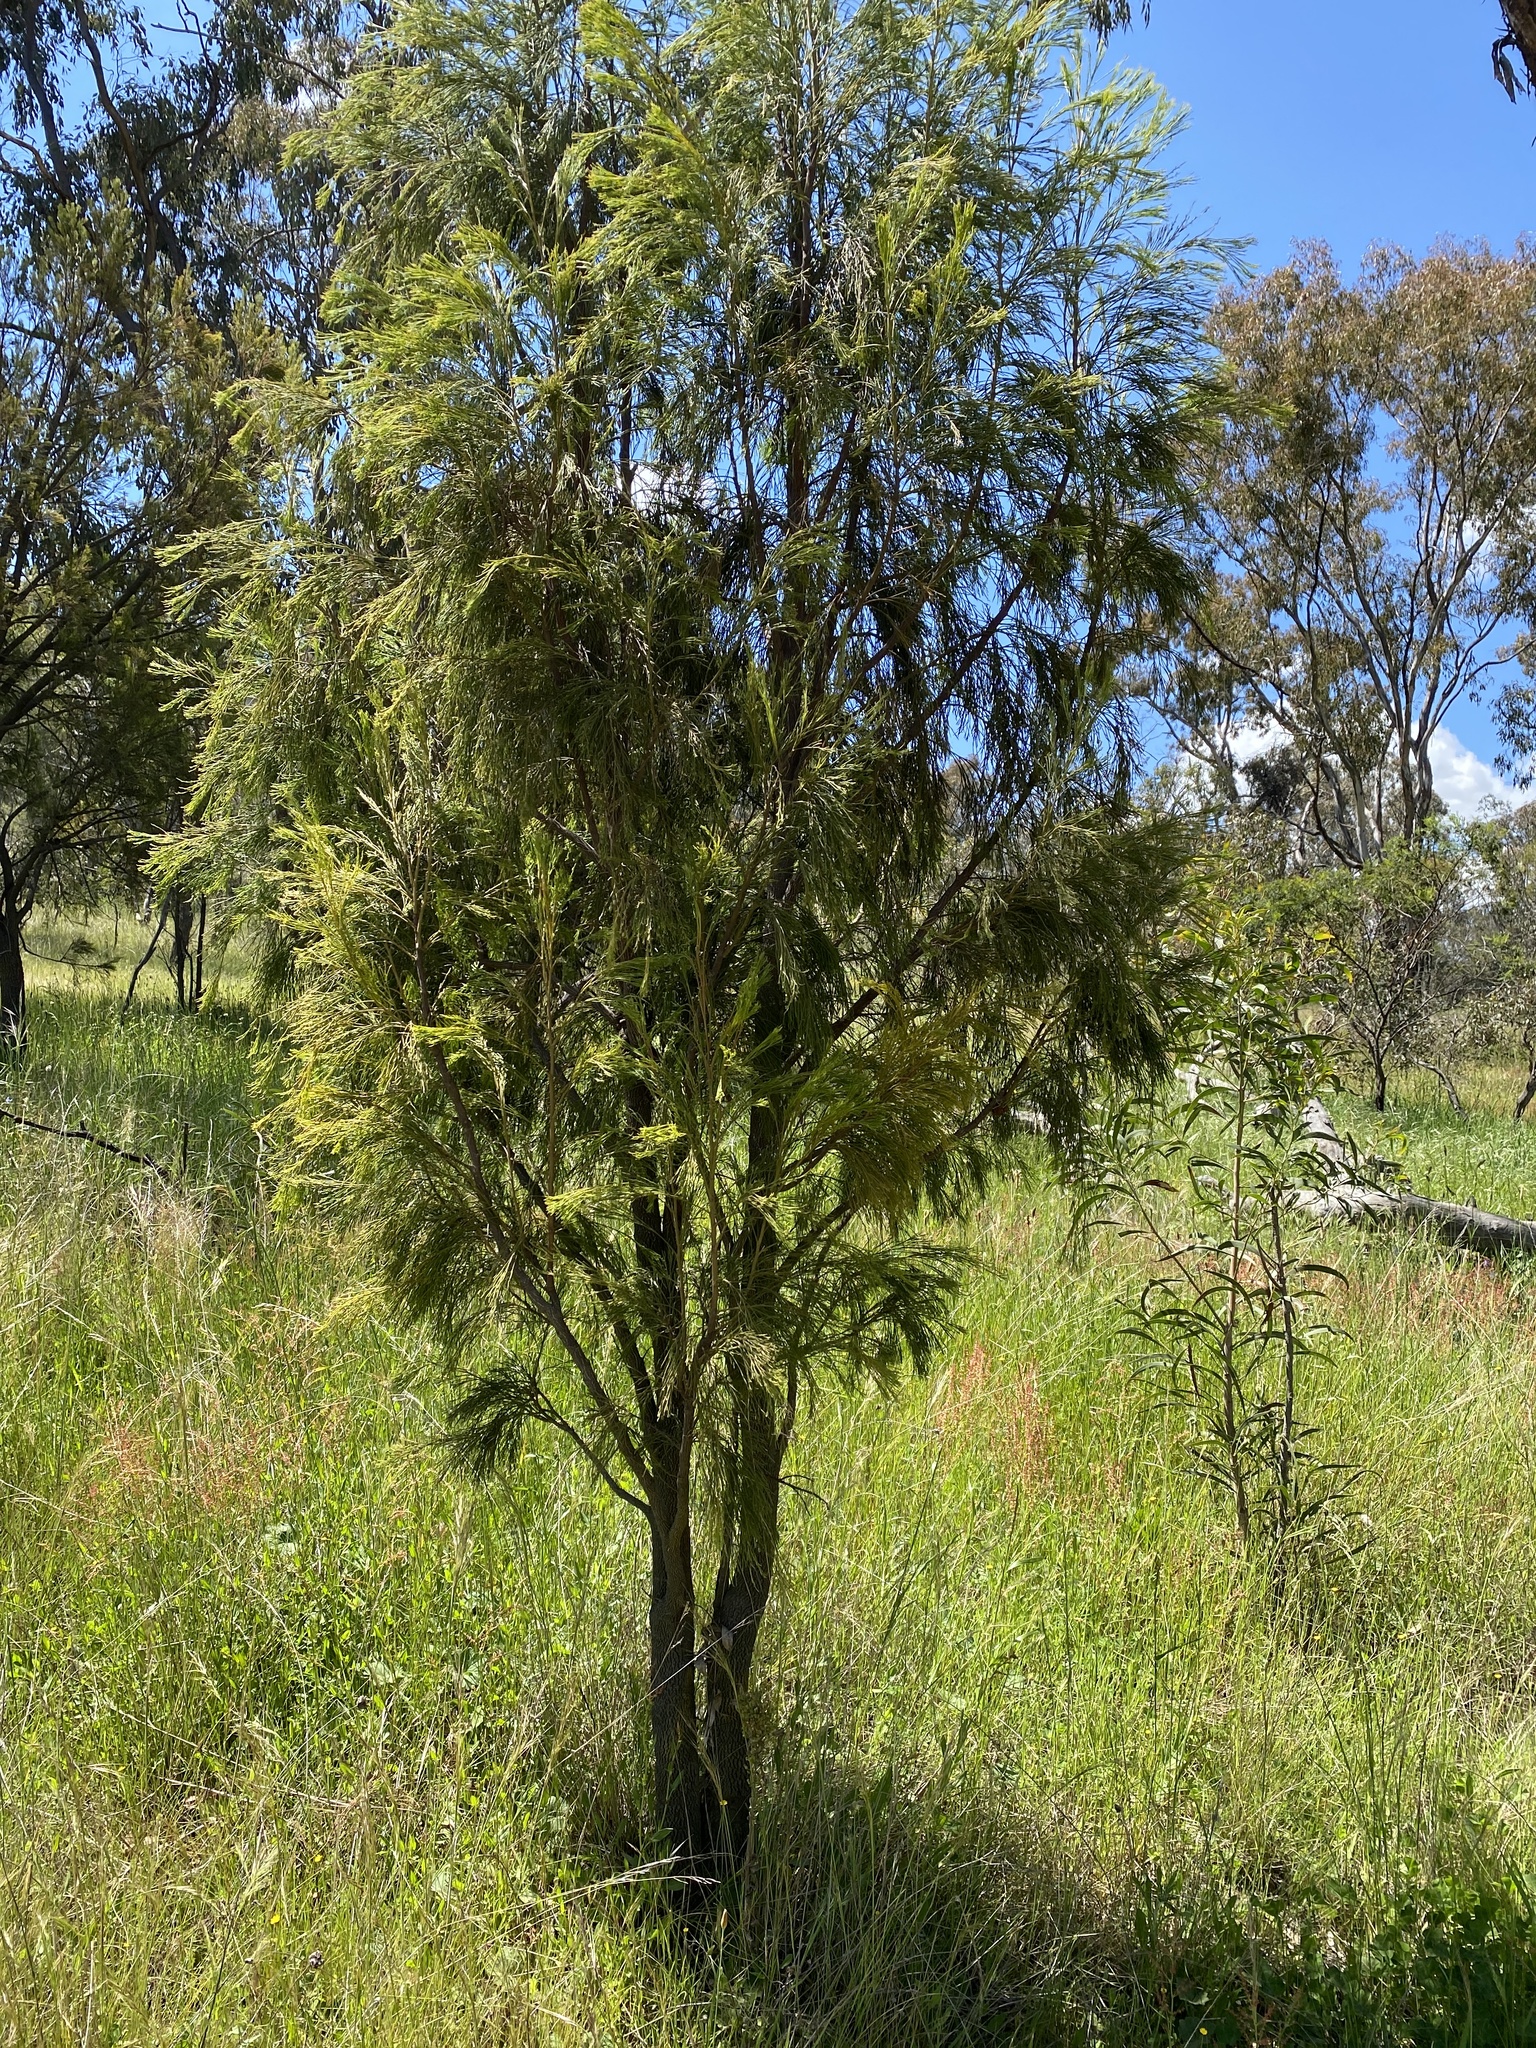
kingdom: Plantae
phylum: Tracheophyta
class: Magnoliopsida
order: Santalales
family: Santalaceae
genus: Exocarpos
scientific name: Exocarpos cupressiformis
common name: Cherry ballart
